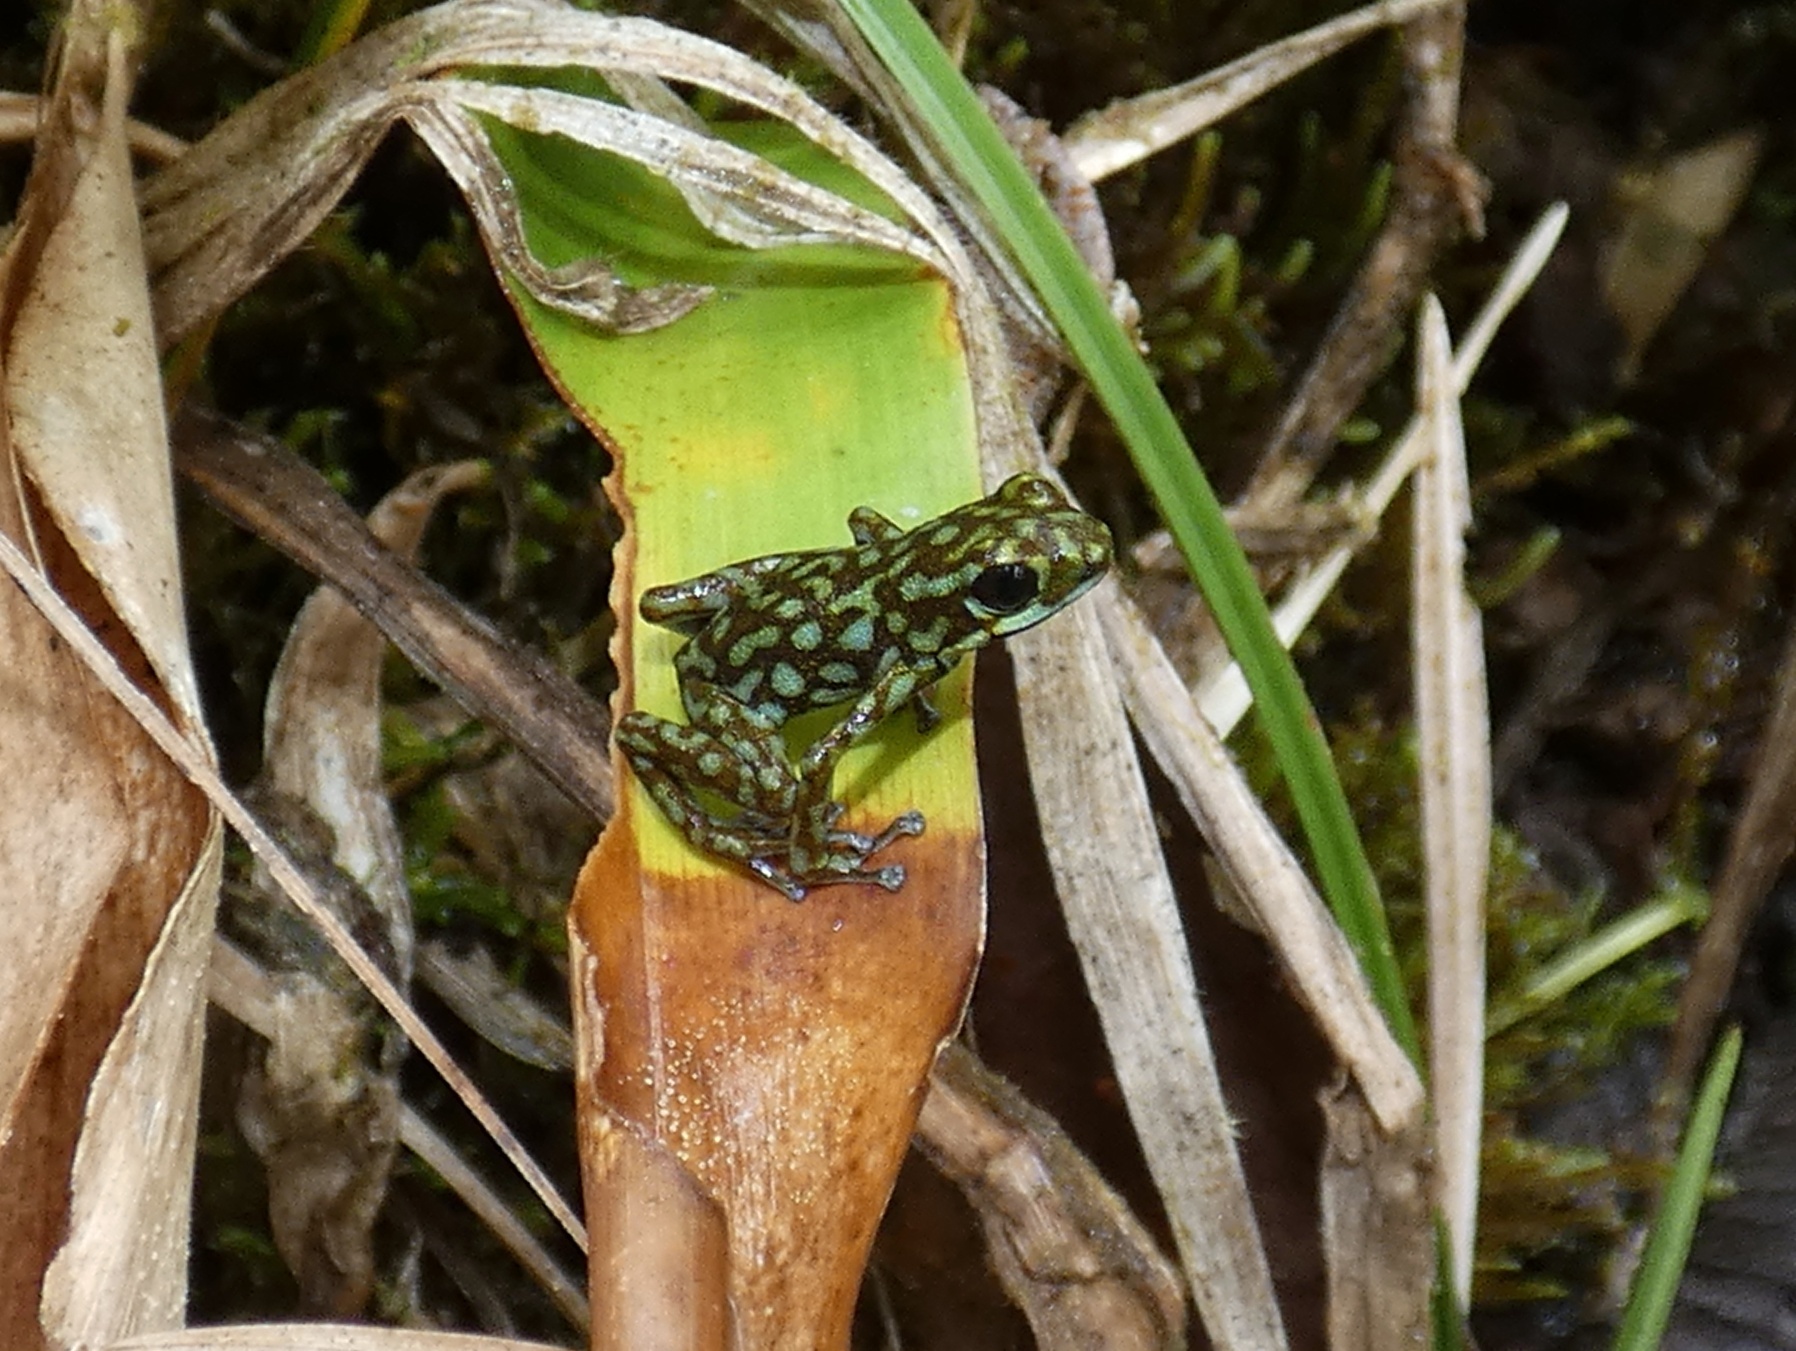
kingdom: Animalia
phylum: Chordata
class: Amphibia
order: Anura
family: Dendrobatidae
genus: Oophaga
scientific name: Oophaga vicentei
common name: Vicente's poison frog
